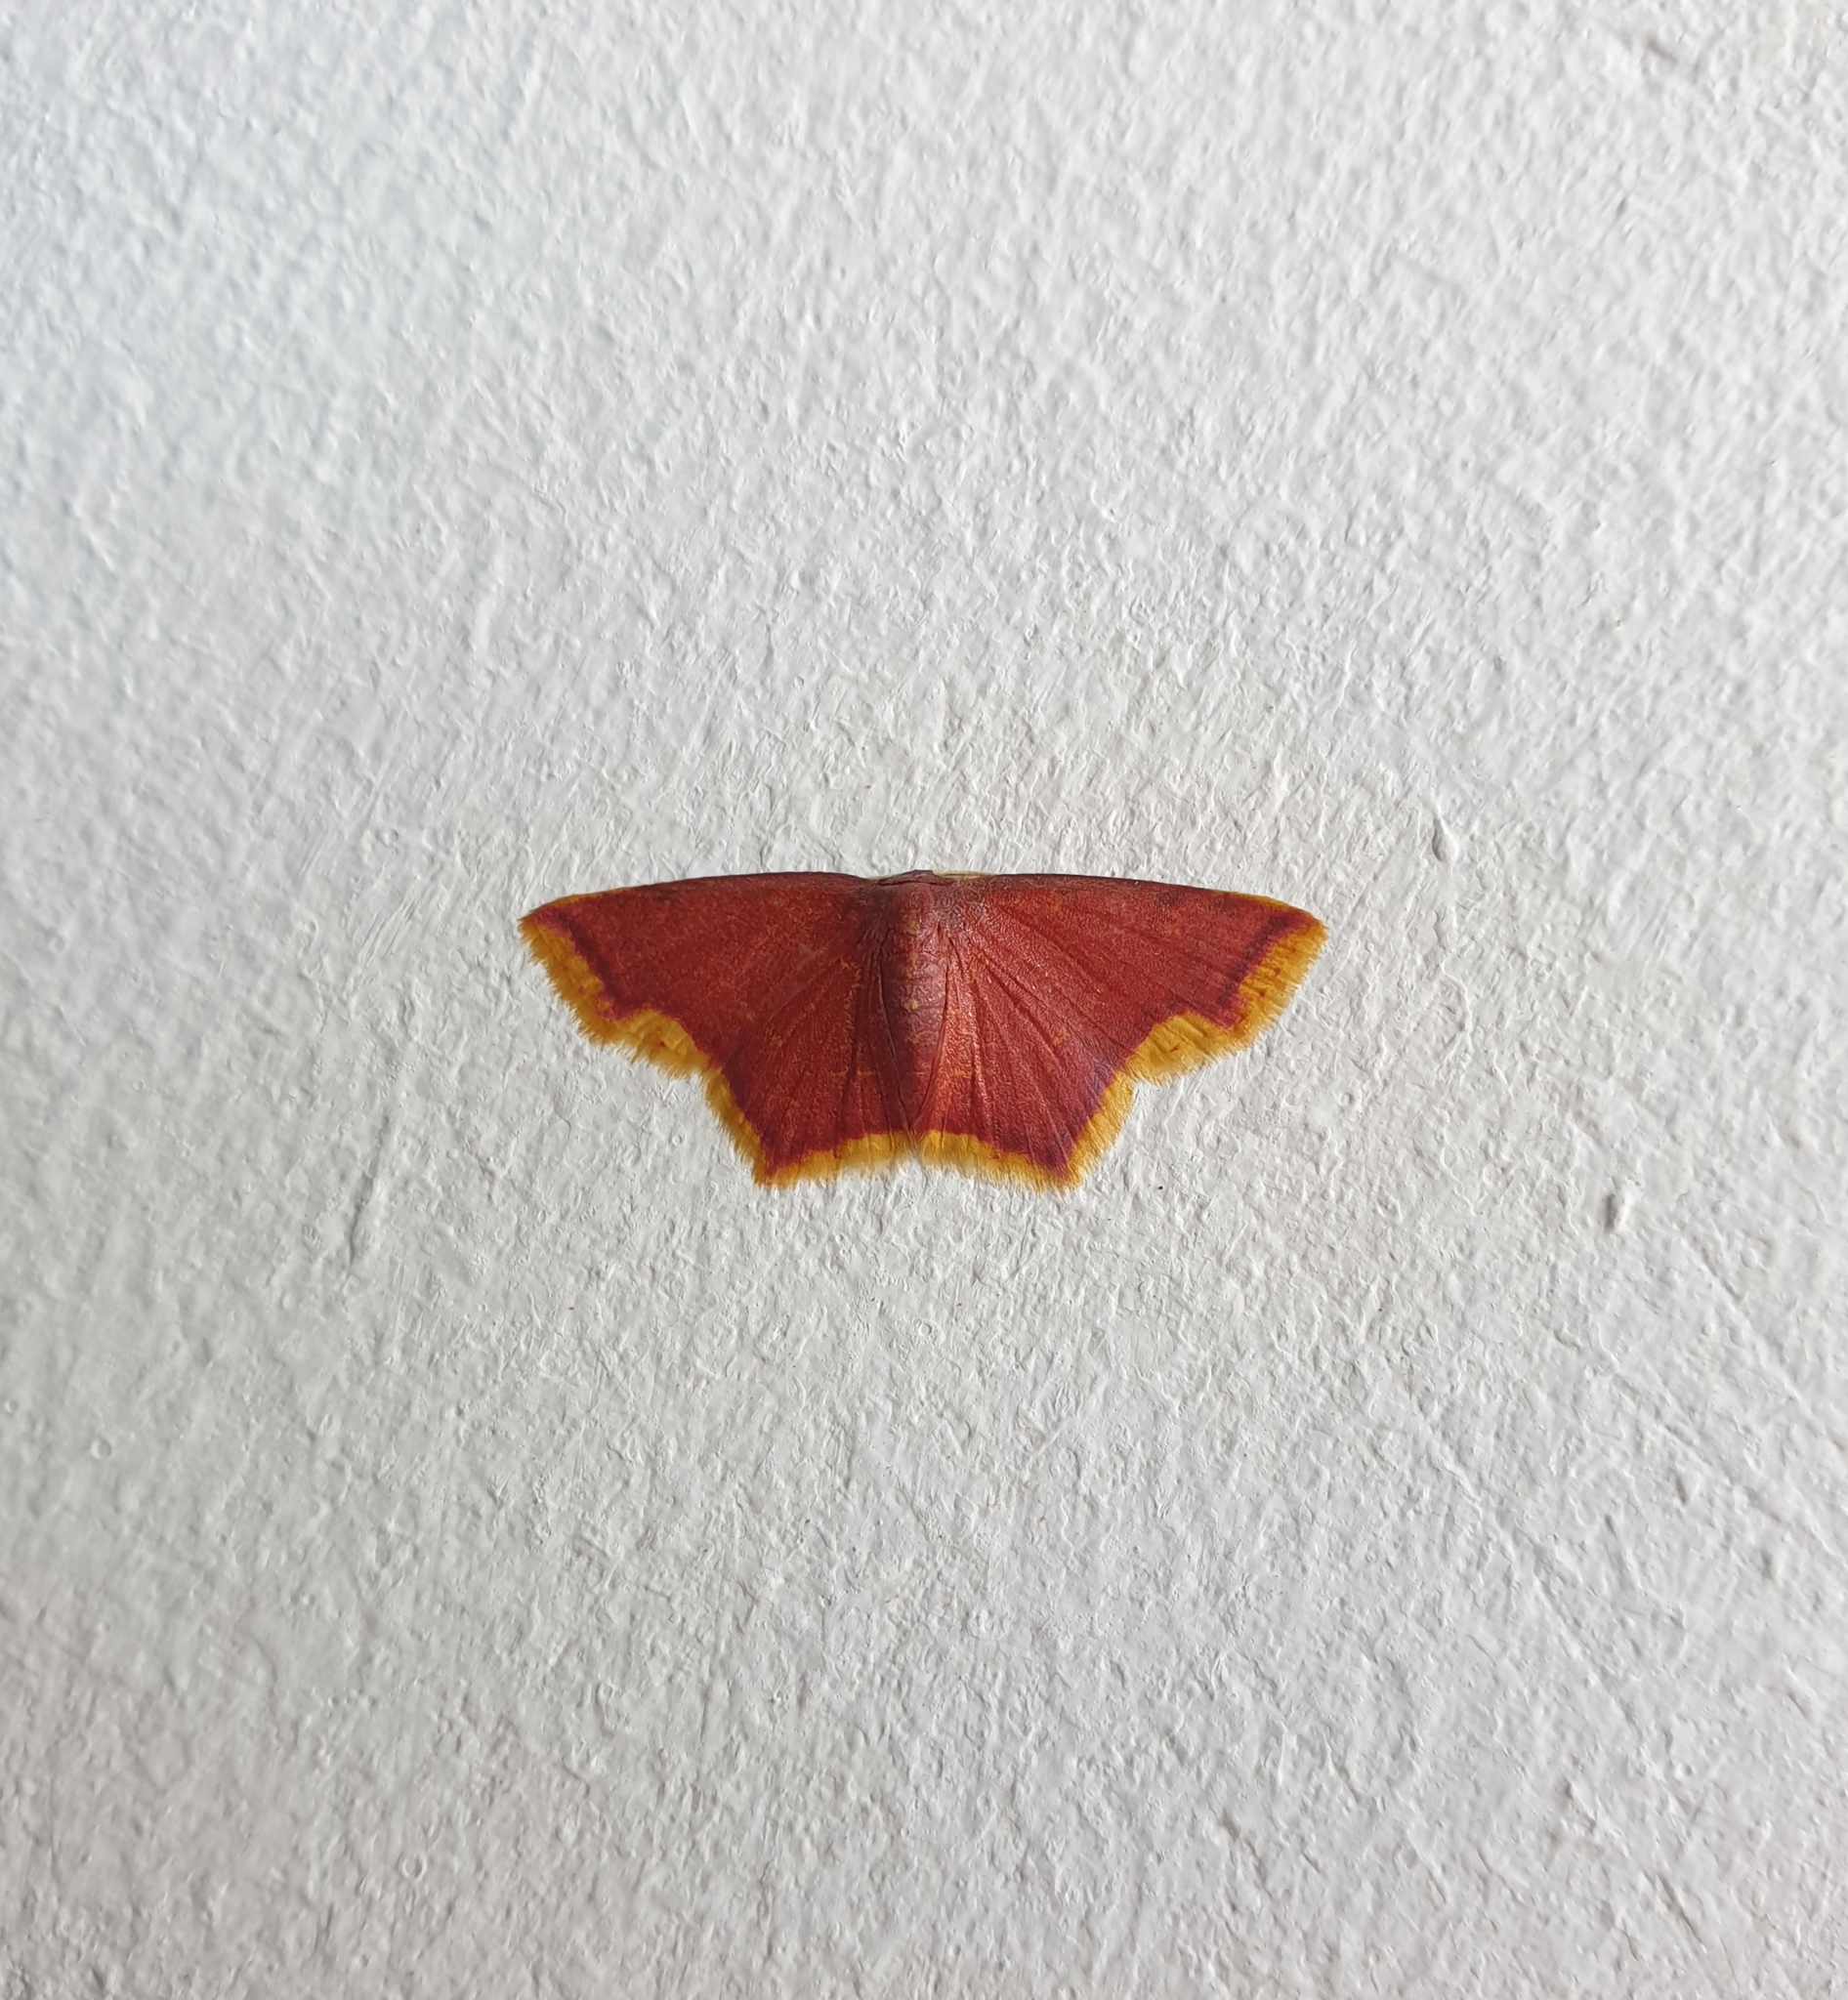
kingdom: Animalia
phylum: Arthropoda
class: Insecta
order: Lepidoptera
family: Geometridae
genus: Chrysocraspeda
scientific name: Chrysocraspeda faganaria
